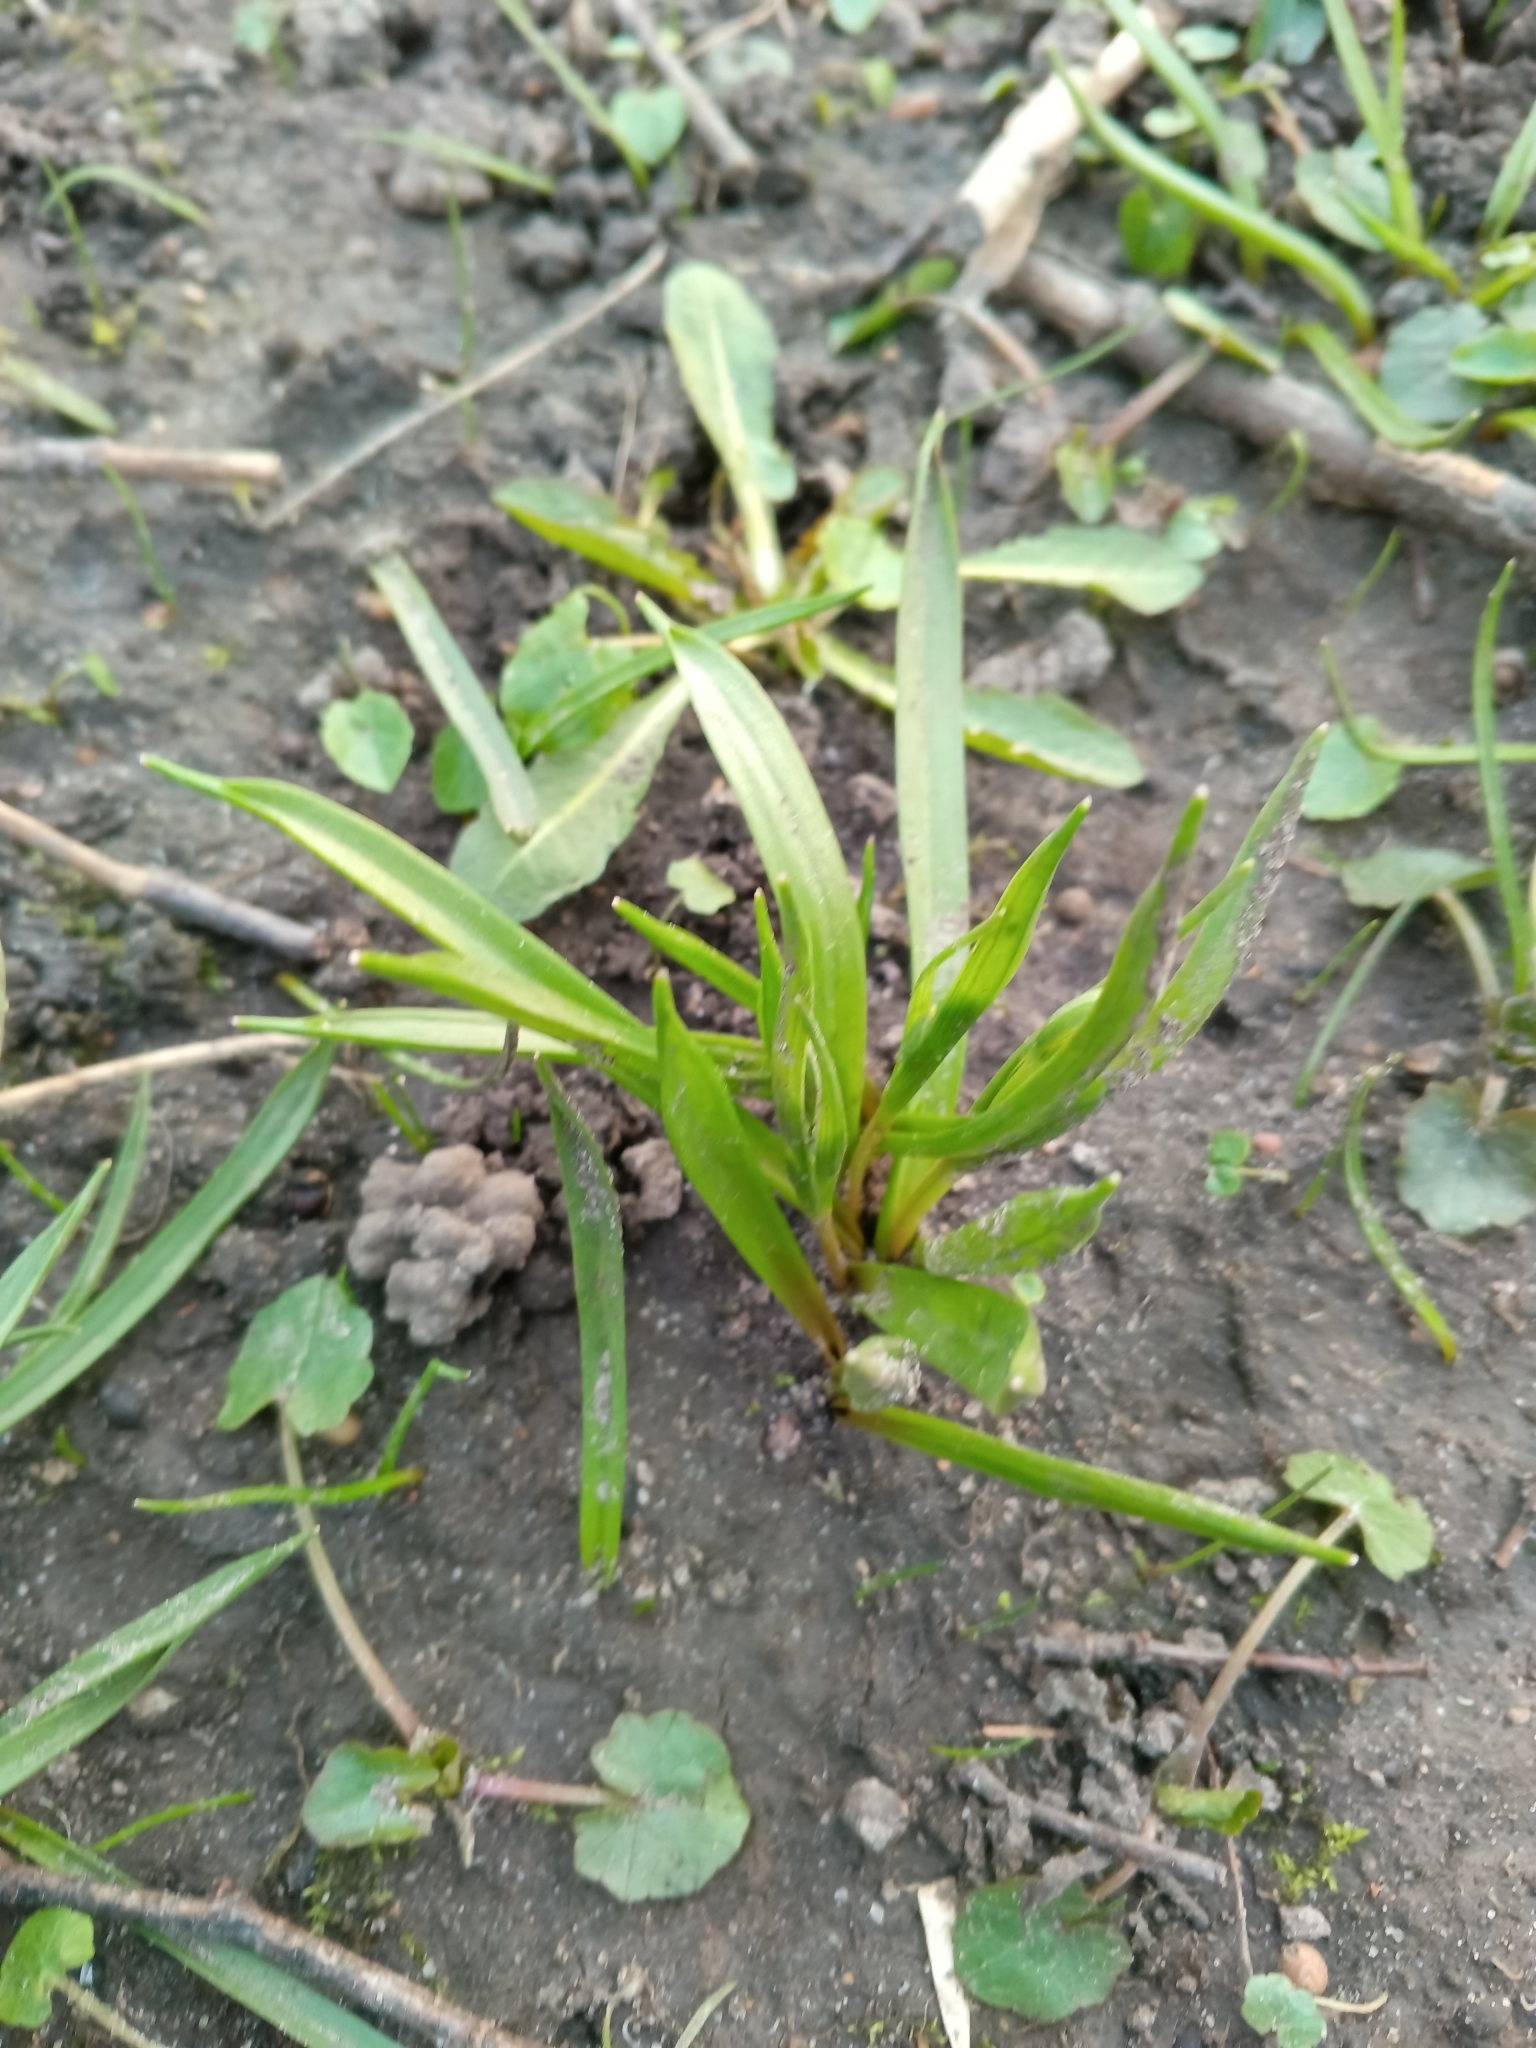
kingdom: Plantae
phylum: Tracheophyta
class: Liliopsida
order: Liliales
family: Liliaceae
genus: Gagea
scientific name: Gagea lutea
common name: Yellow star-of-bethlehem
